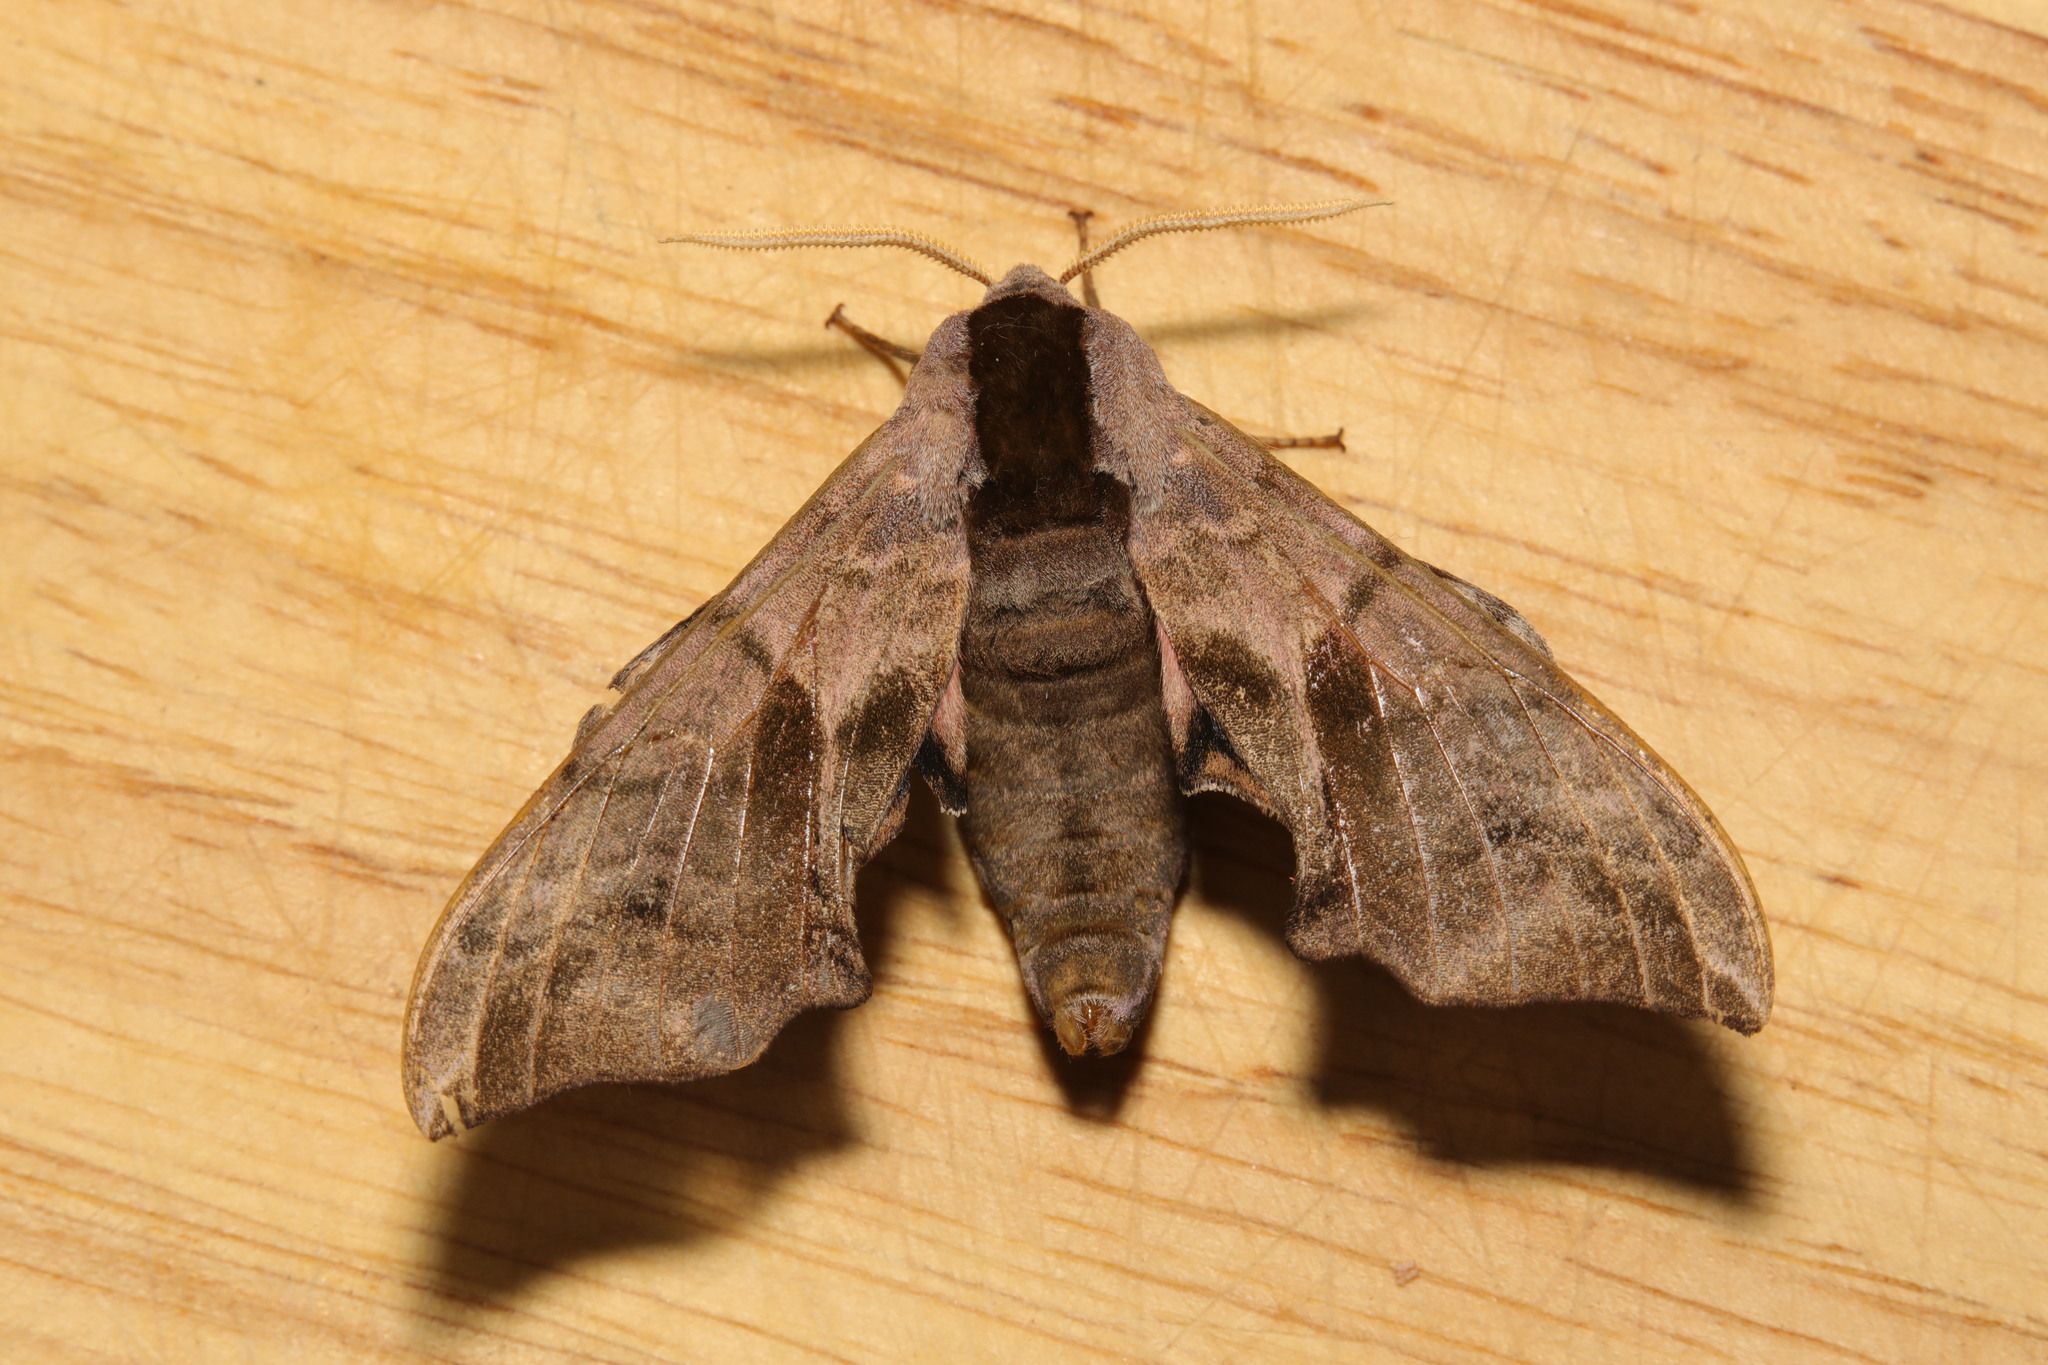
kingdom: Animalia
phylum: Arthropoda
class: Insecta
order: Lepidoptera
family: Sphingidae
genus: Smerinthus
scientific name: Smerinthus ocellata
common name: Eyed hawk-moth
